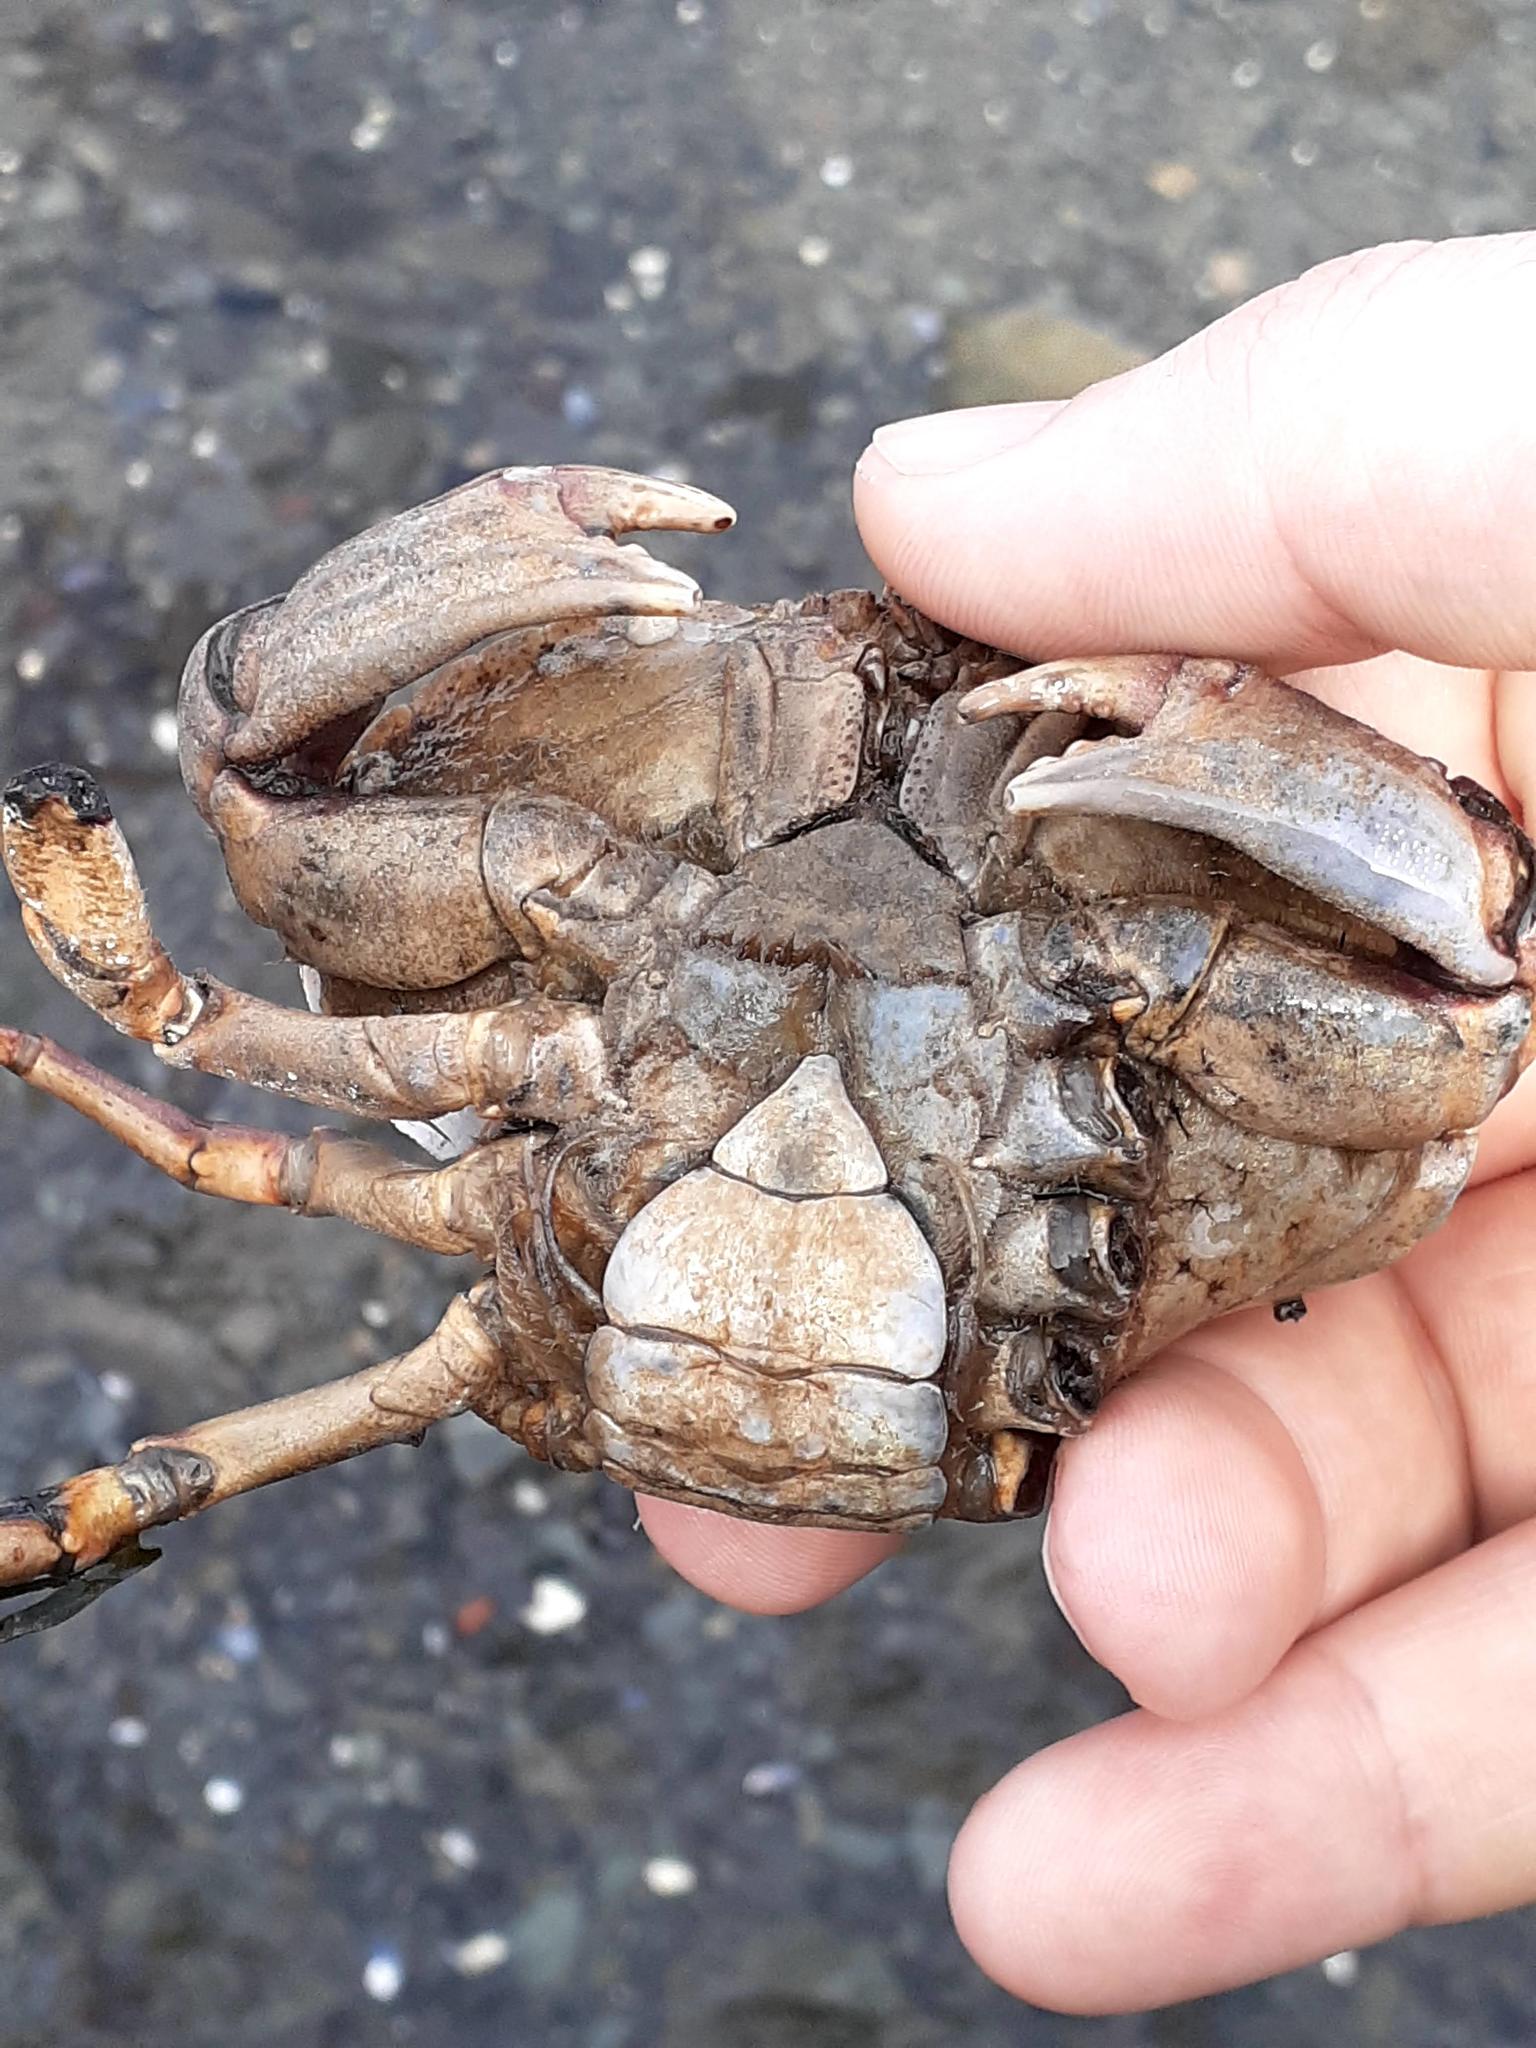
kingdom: Animalia
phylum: Arthropoda
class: Malacostraca
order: Decapoda
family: Cancridae
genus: Cancer
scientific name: Cancer irroratus
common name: Atlantic rock crab
